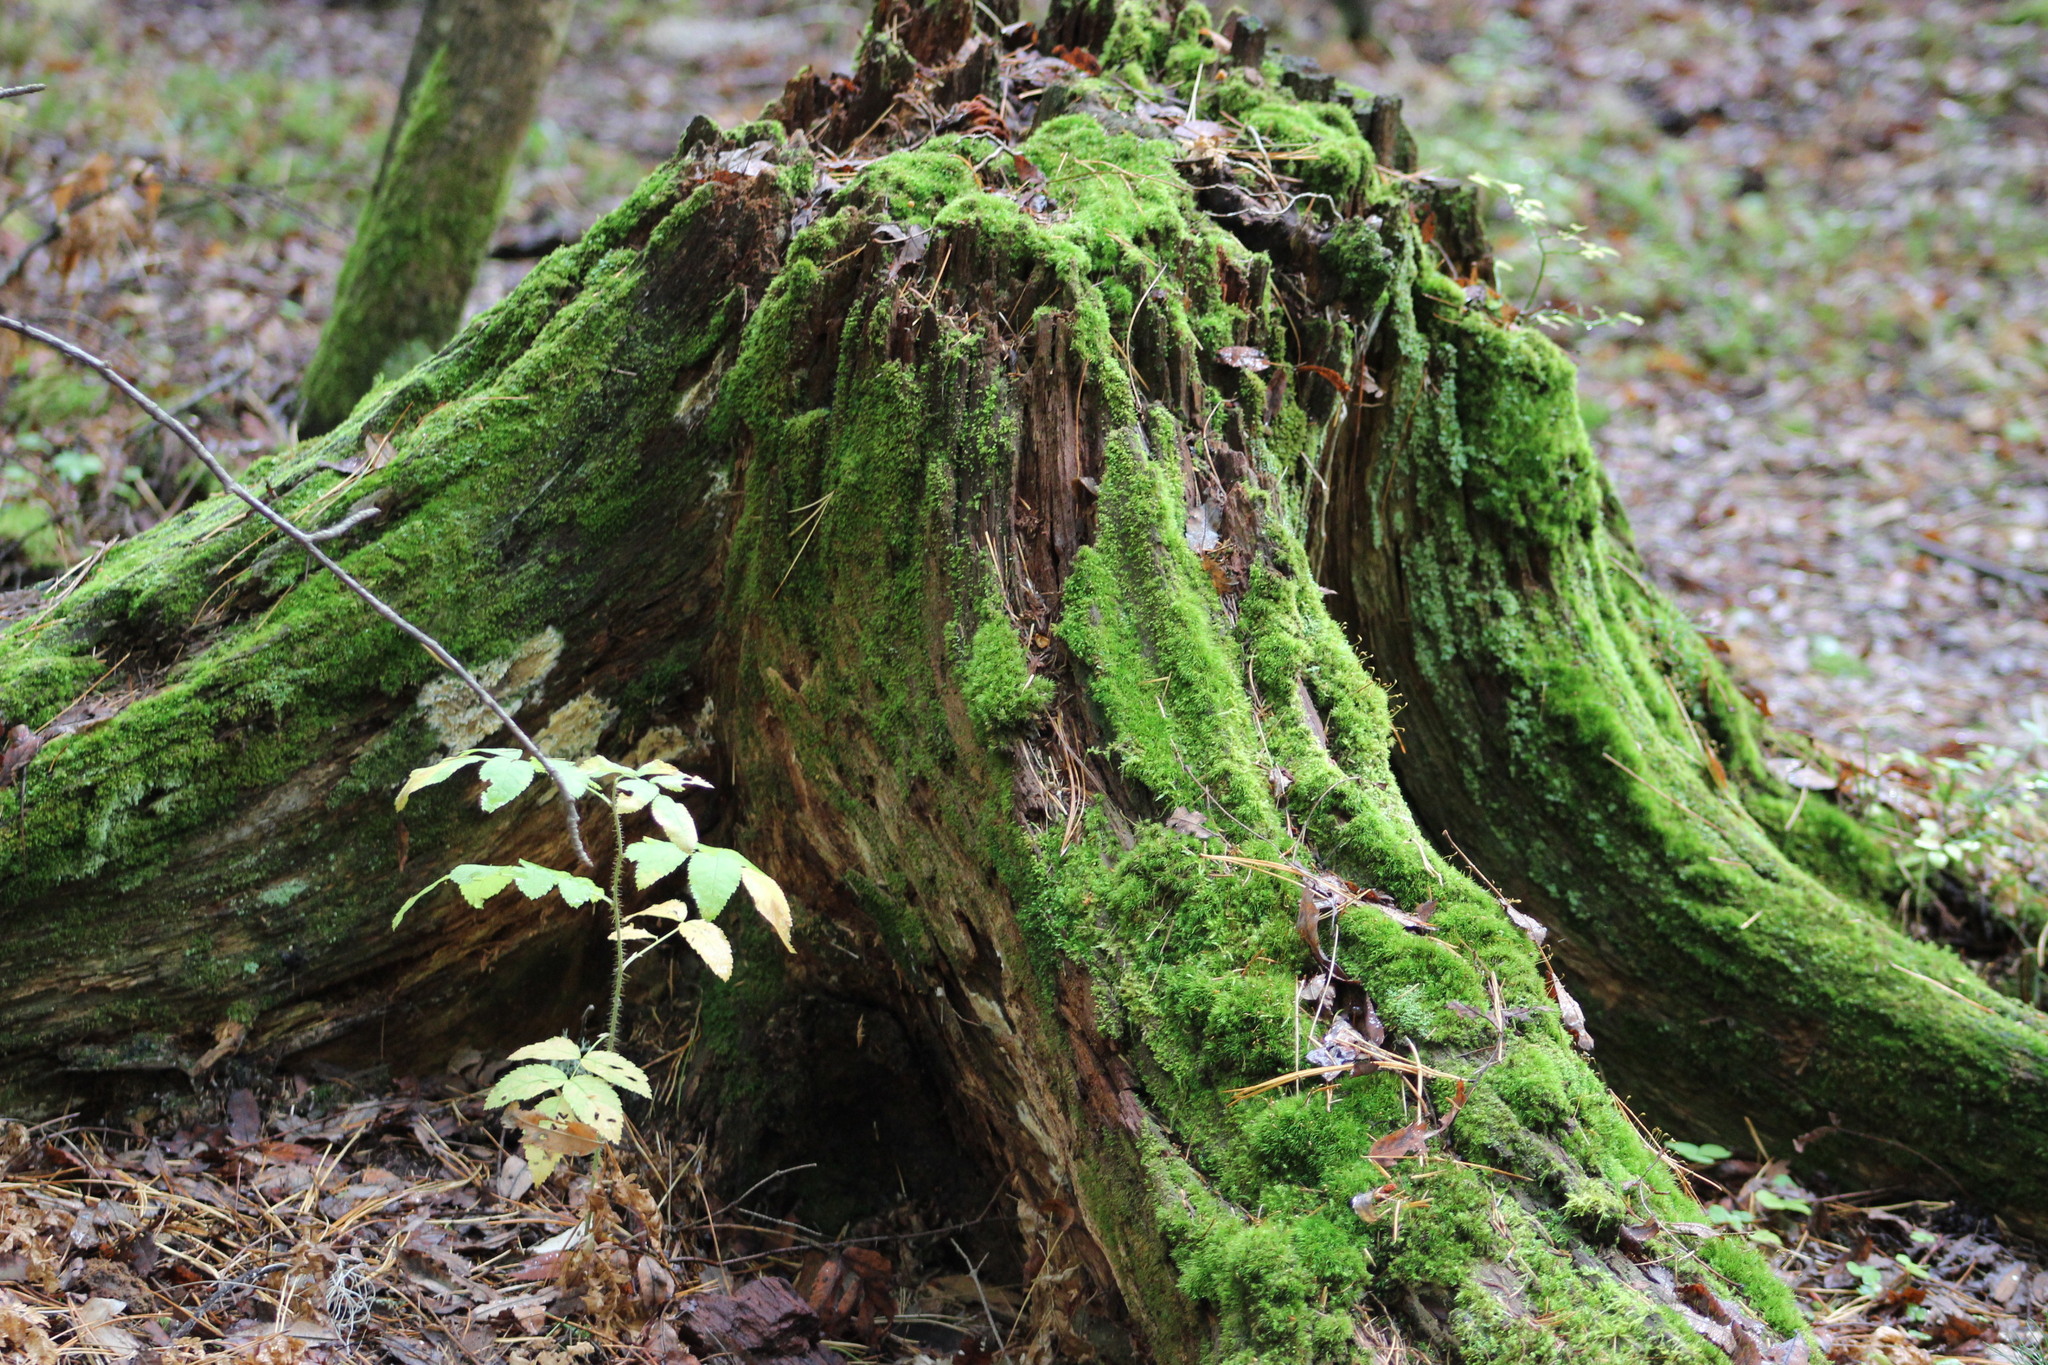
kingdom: Plantae
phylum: Bryophyta
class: Bryopsida
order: Dicranales
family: Dicranaceae
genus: Orthodicranum
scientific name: Orthodicranum montanum
